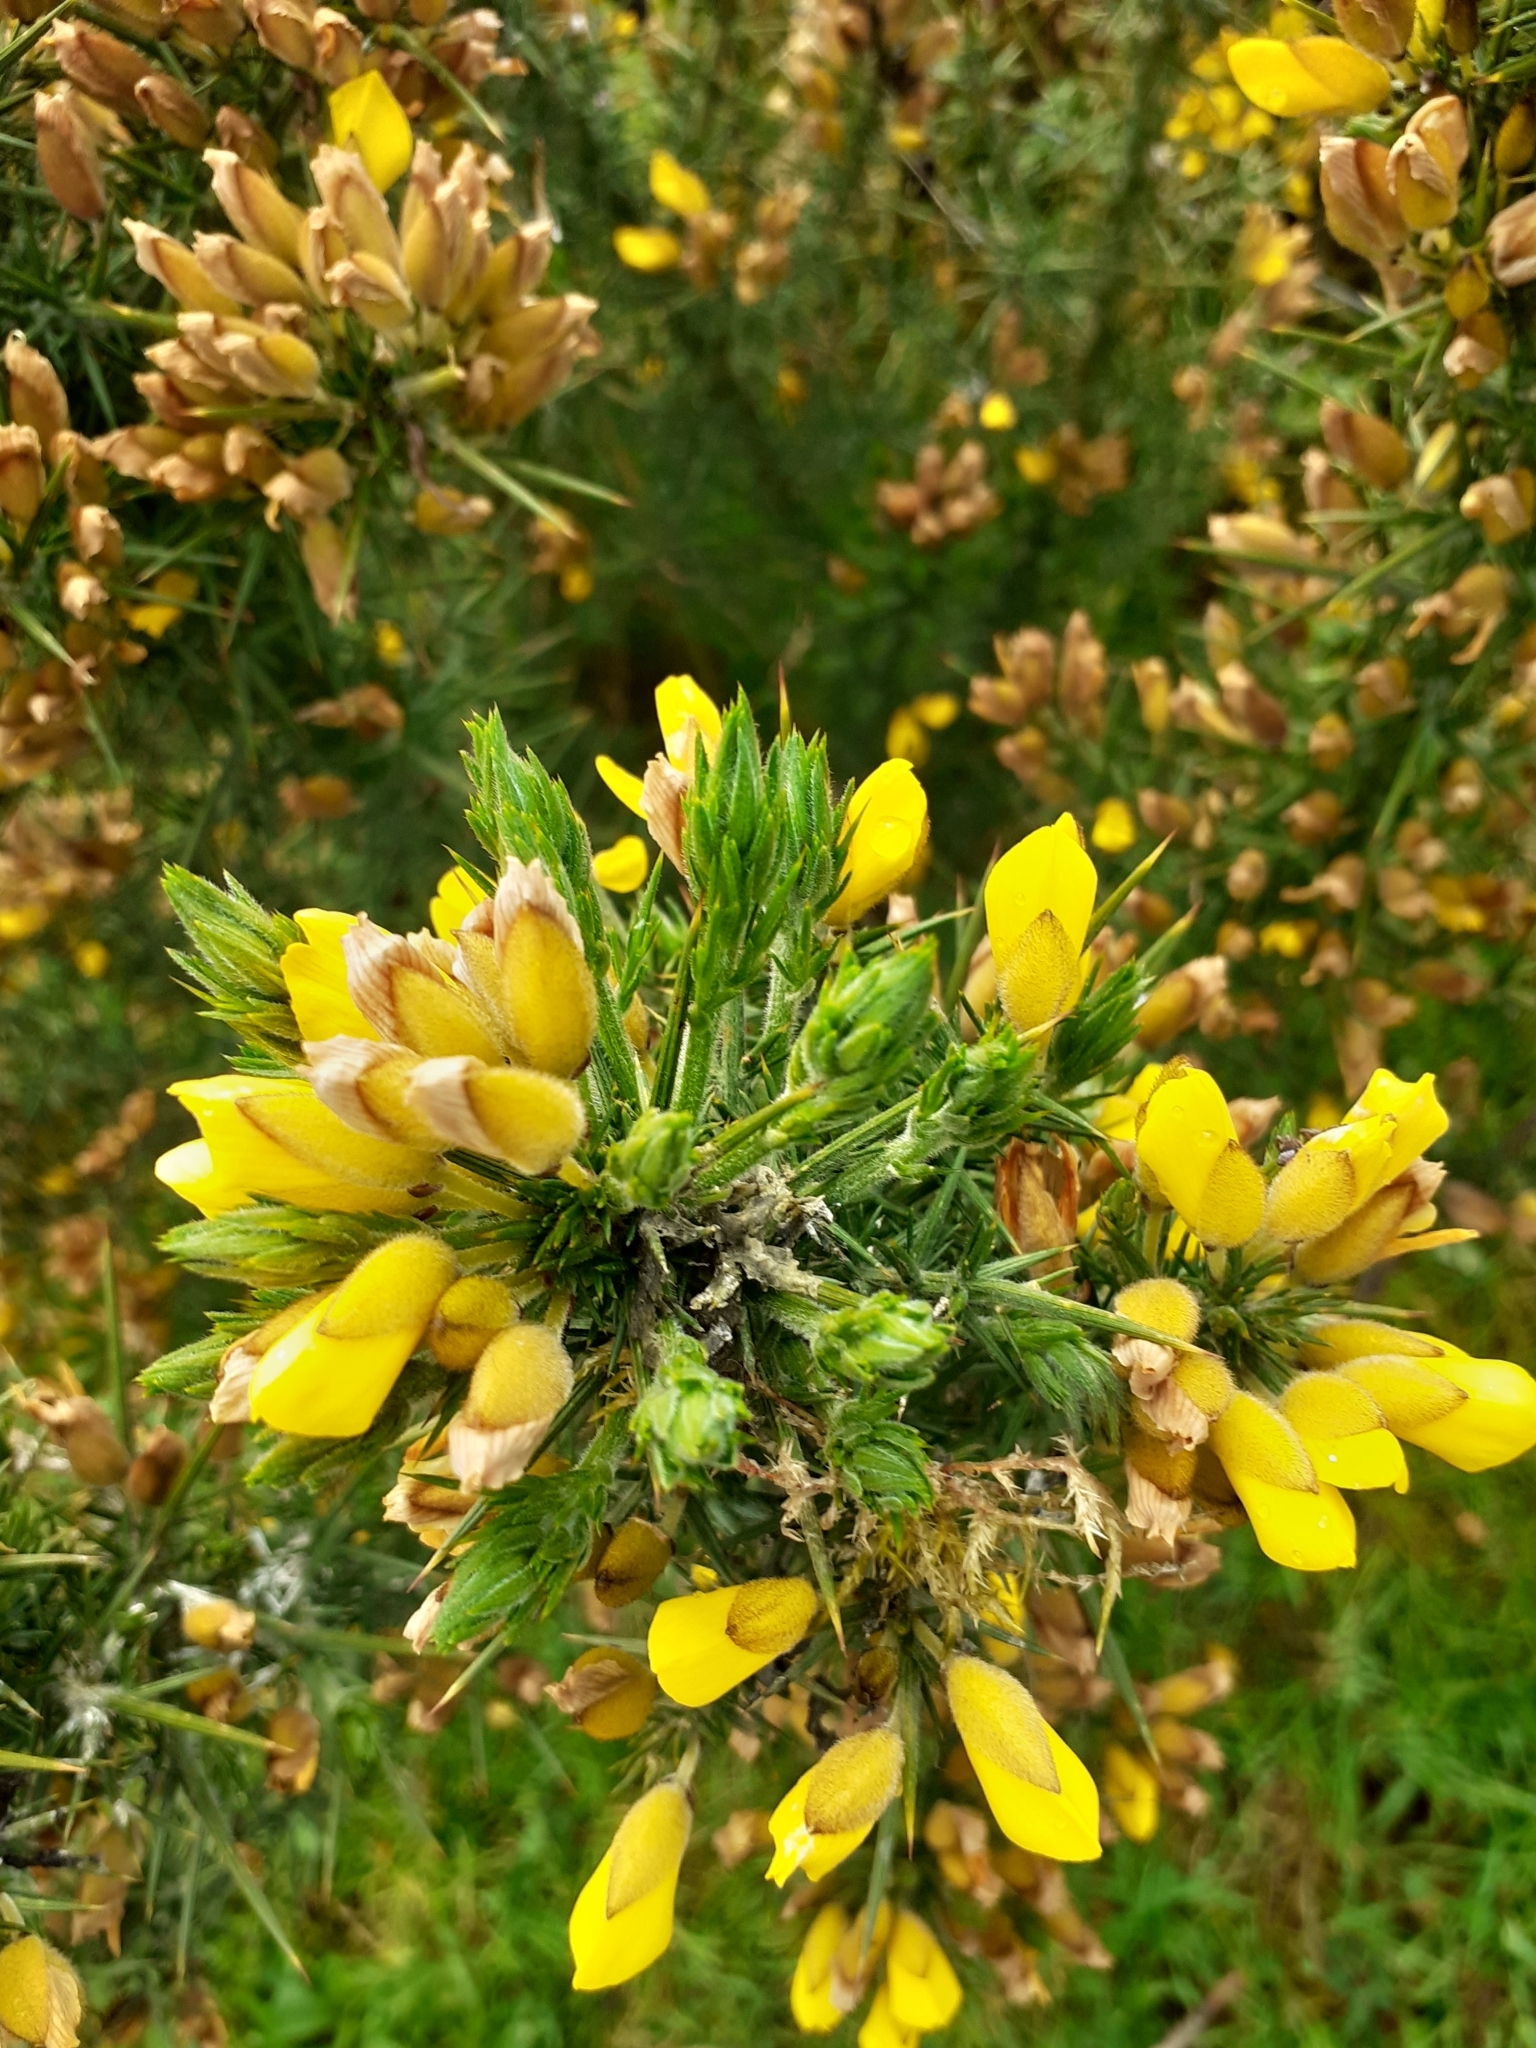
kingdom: Plantae
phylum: Tracheophyta
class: Magnoliopsida
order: Fabales
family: Fabaceae
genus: Ulex
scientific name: Ulex europaeus
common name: Common gorse
